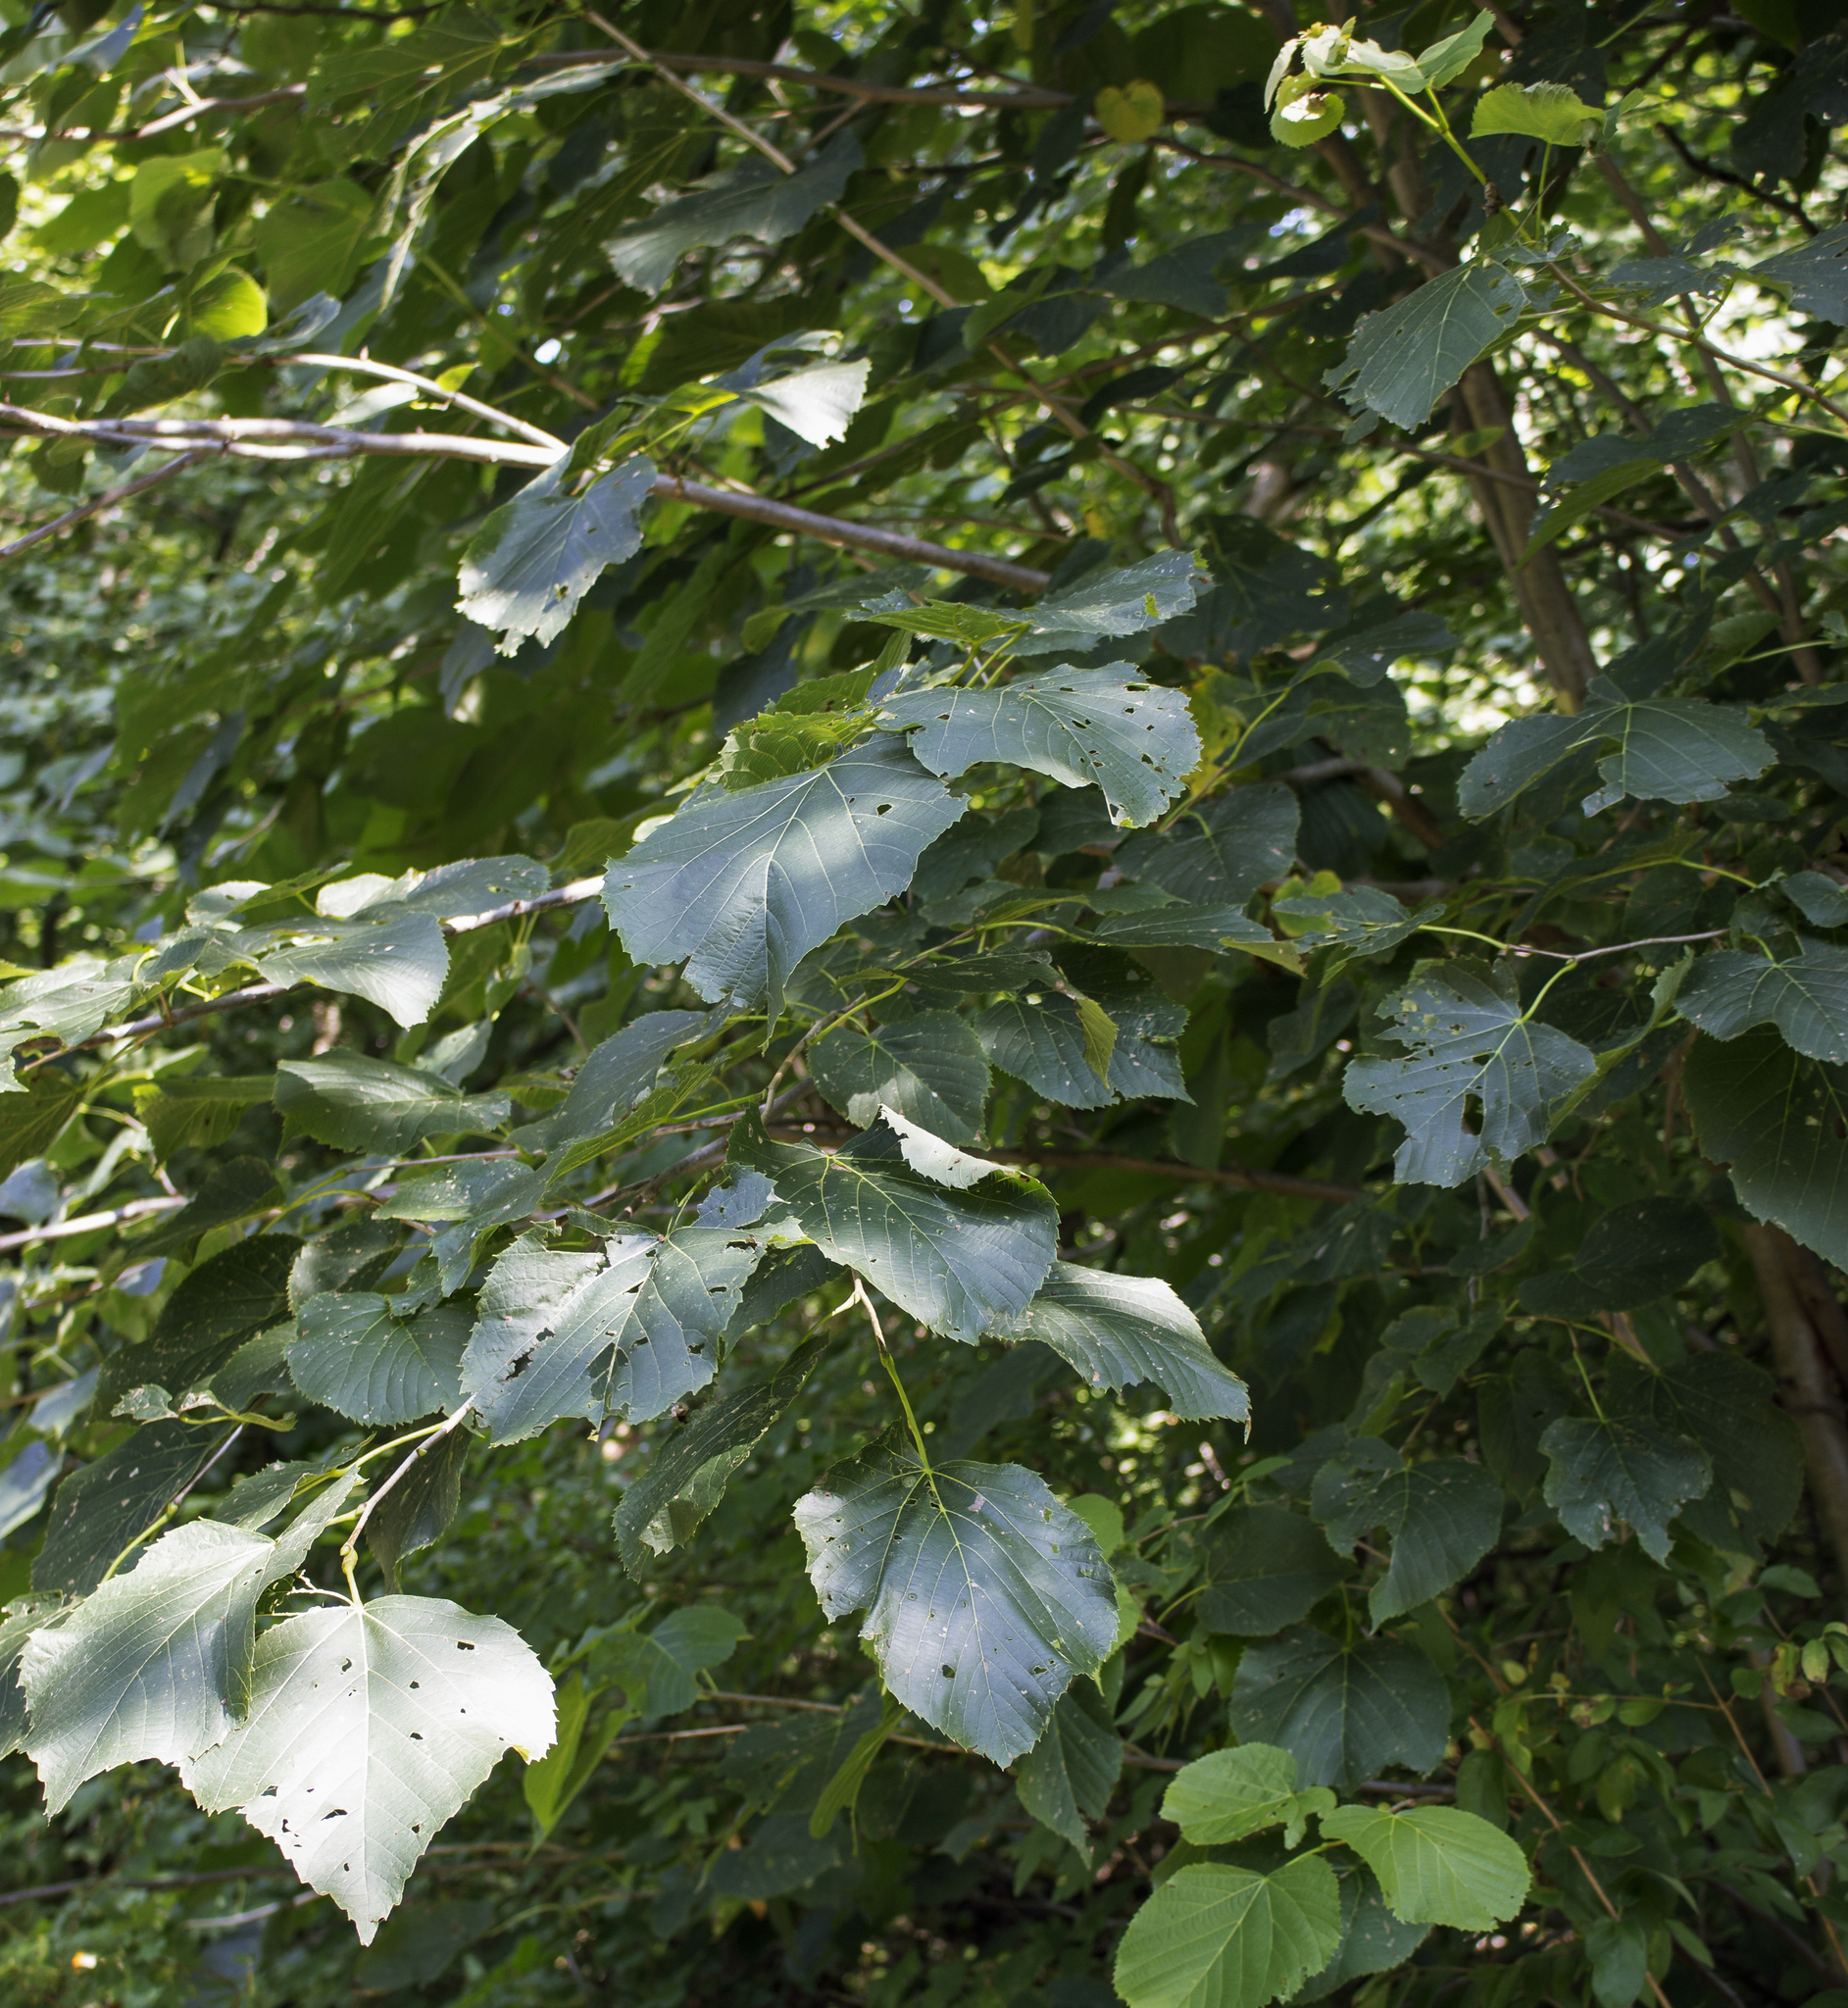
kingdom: Plantae
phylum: Tracheophyta
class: Magnoliopsida
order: Malvales
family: Malvaceae
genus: Tilia
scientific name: Tilia americana
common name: Basswood
